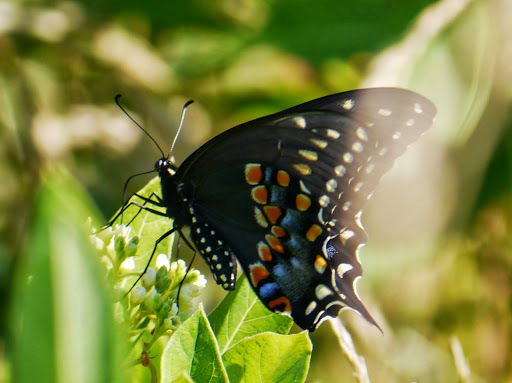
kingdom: Animalia
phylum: Arthropoda
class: Insecta
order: Lepidoptera
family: Papilionidae
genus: Papilio
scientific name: Papilio polyxenes
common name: Black swallowtail
